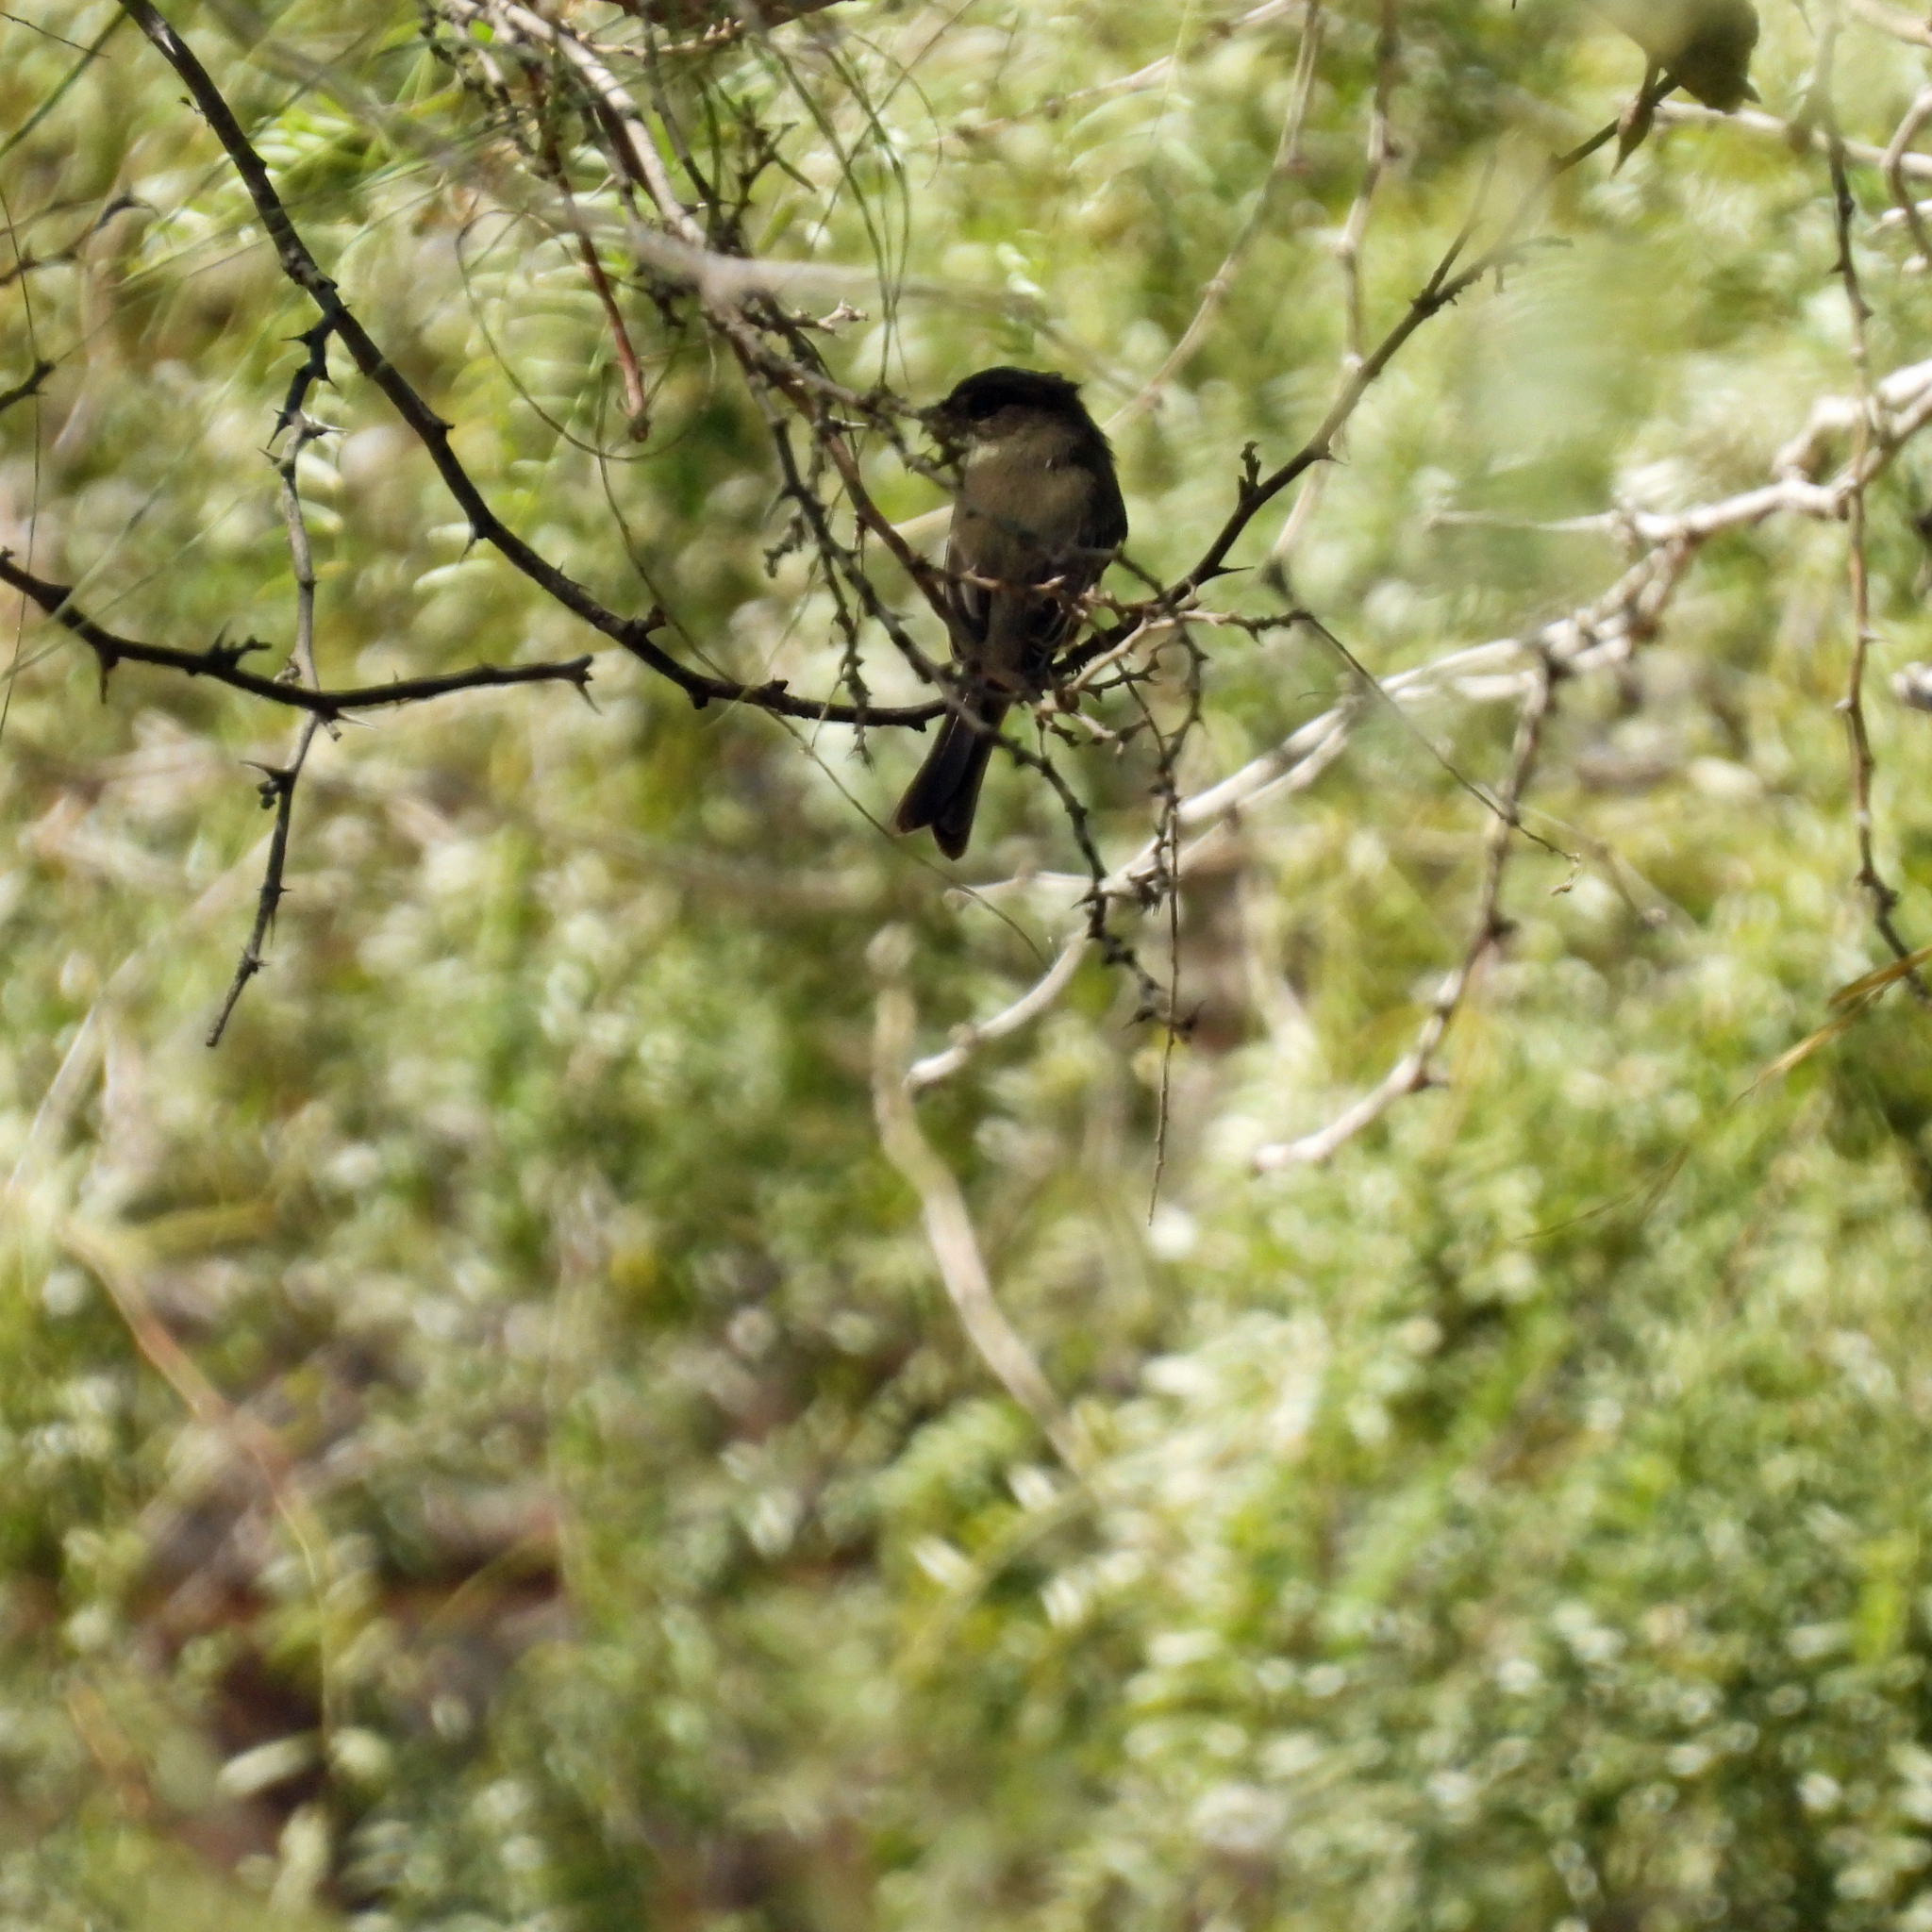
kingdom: Animalia
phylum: Chordata
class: Aves
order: Passeriformes
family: Tyrannidae
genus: Sayornis
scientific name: Sayornis phoebe
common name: Eastern phoebe
